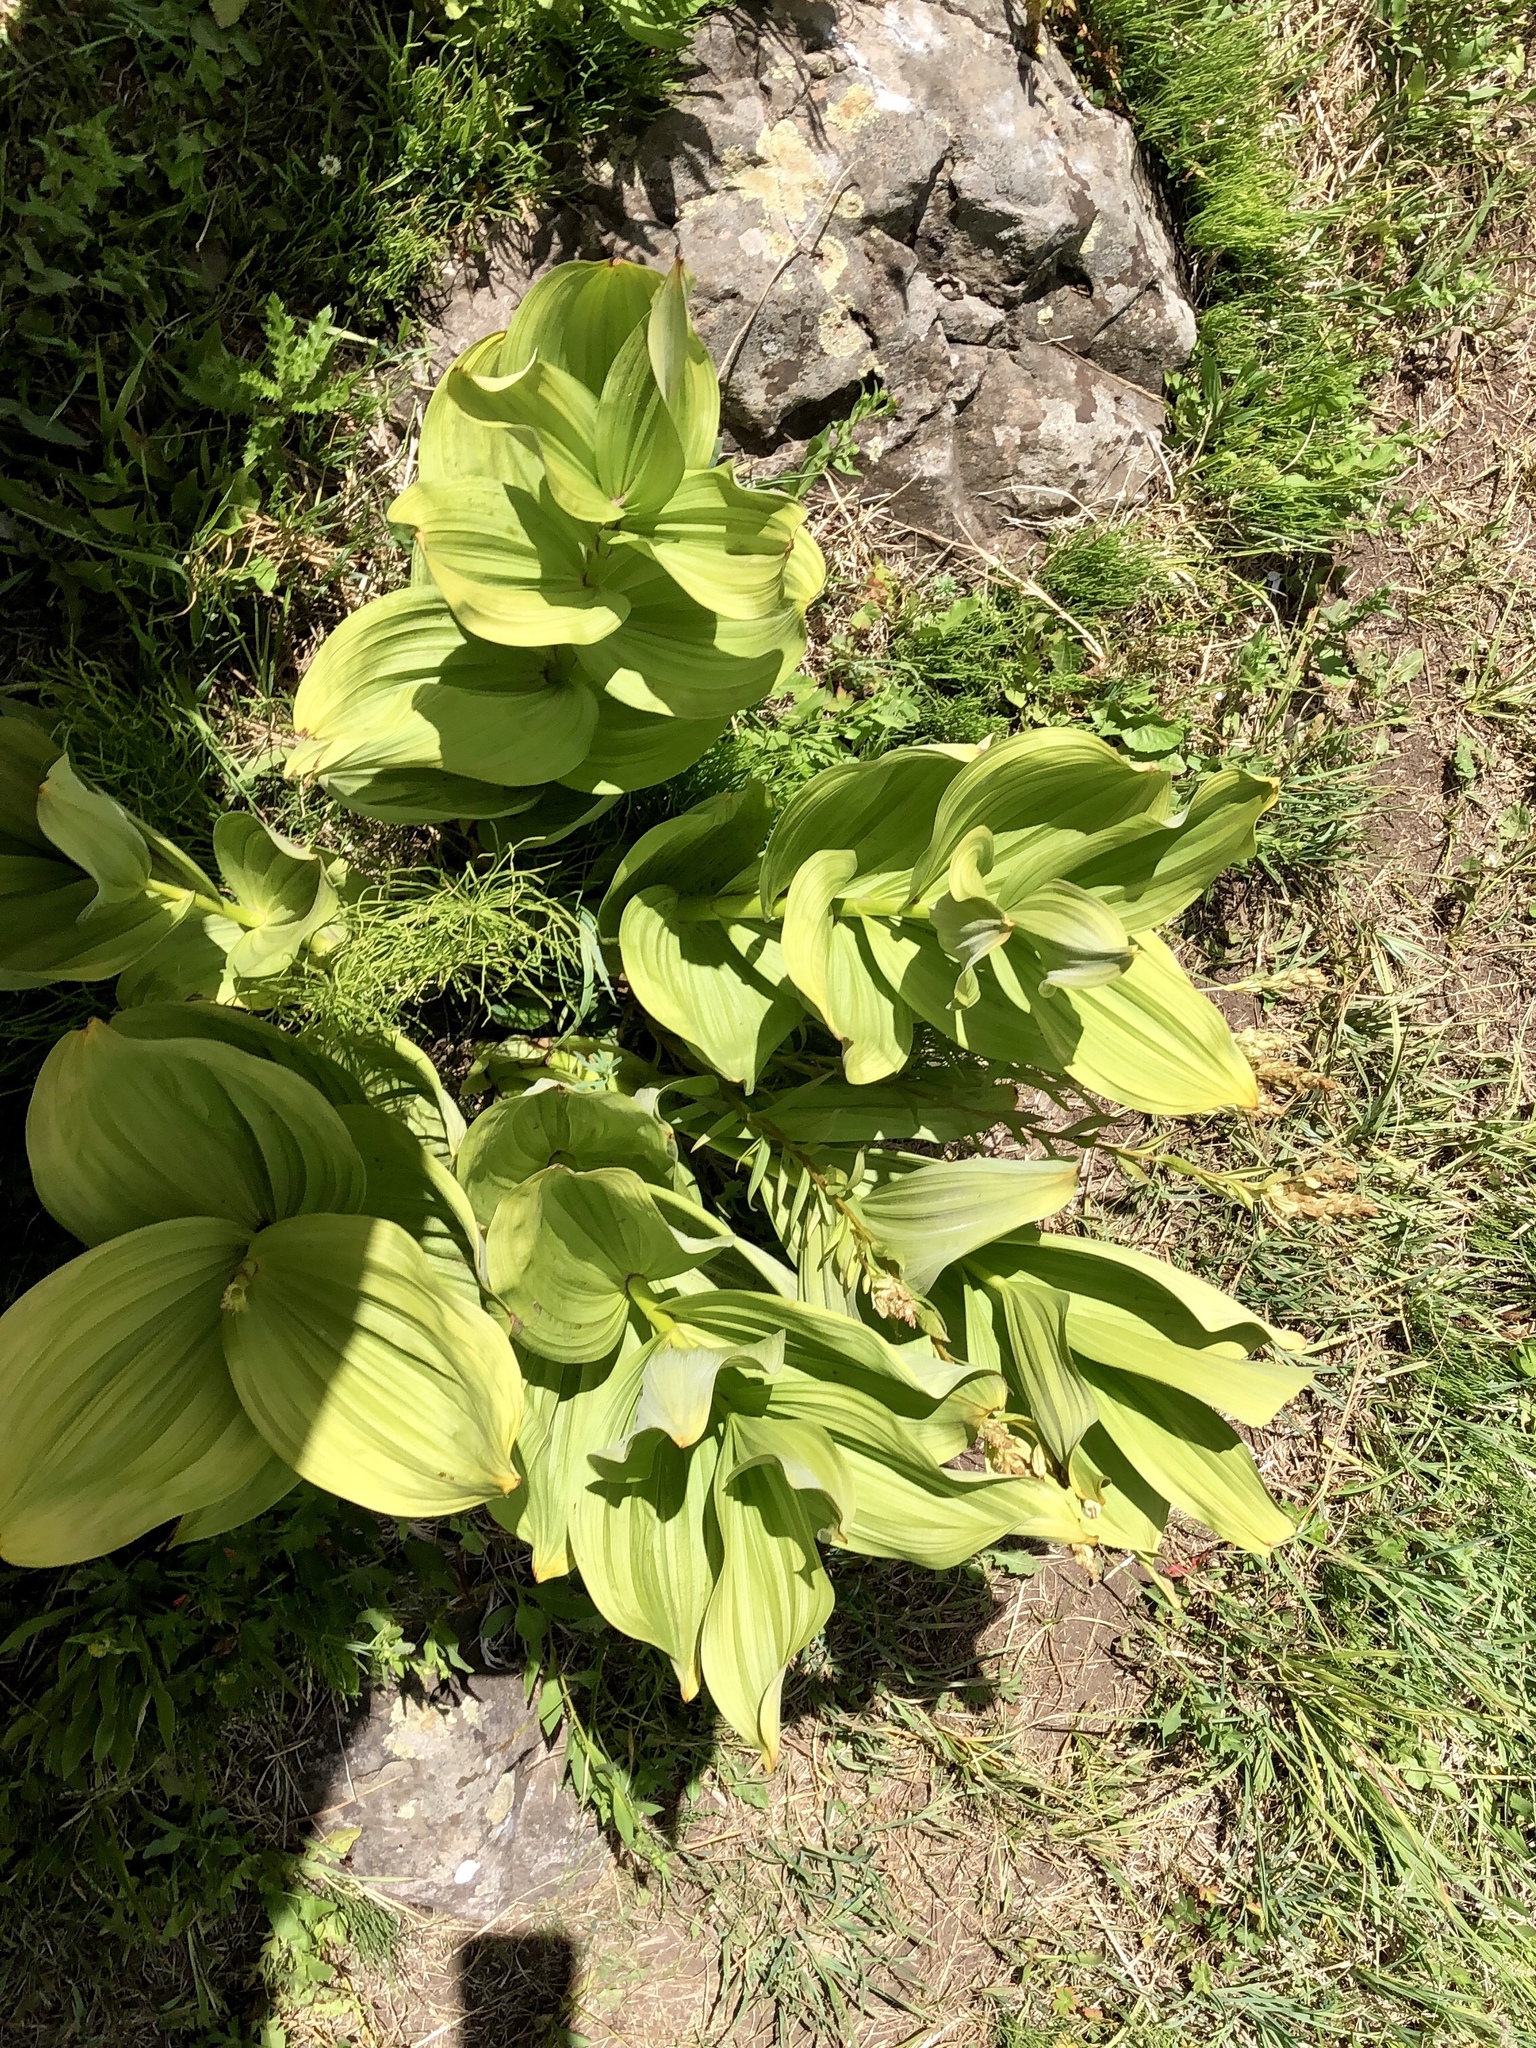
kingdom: Plantae
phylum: Tracheophyta
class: Liliopsida
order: Liliales
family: Melanthiaceae
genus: Veratrum
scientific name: Veratrum californicum
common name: California veratrum
